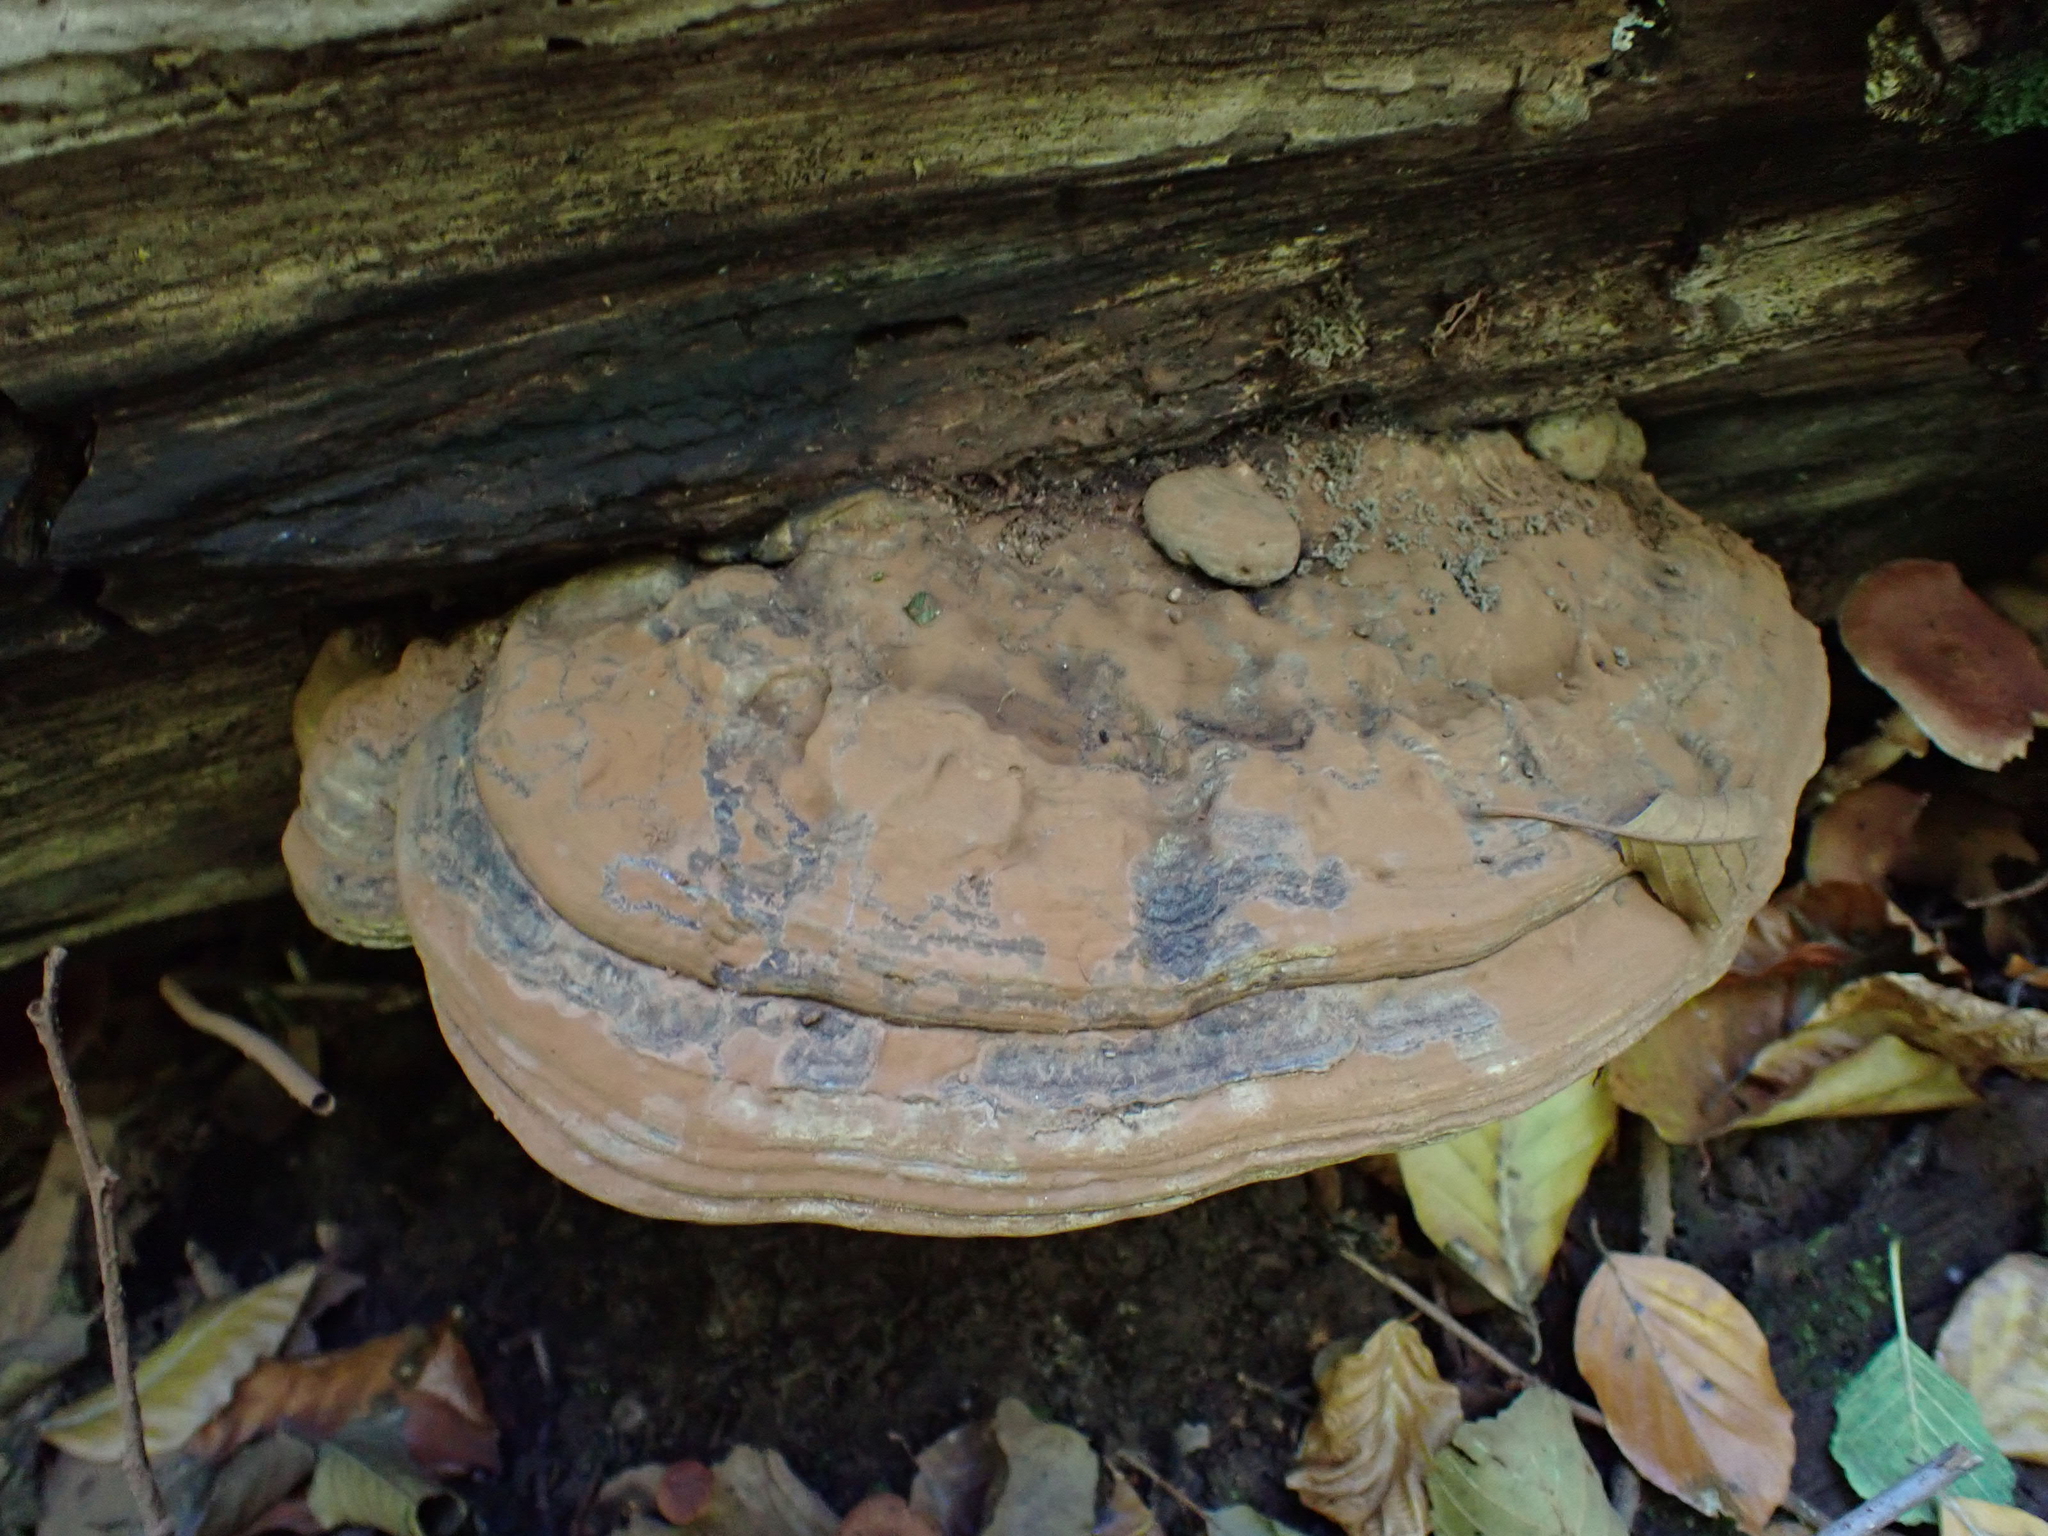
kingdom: Fungi
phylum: Basidiomycota
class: Agaricomycetes
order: Polyporales
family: Polyporaceae
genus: Ganoderma
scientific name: Ganoderma applanatum
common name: Artist's bracket
